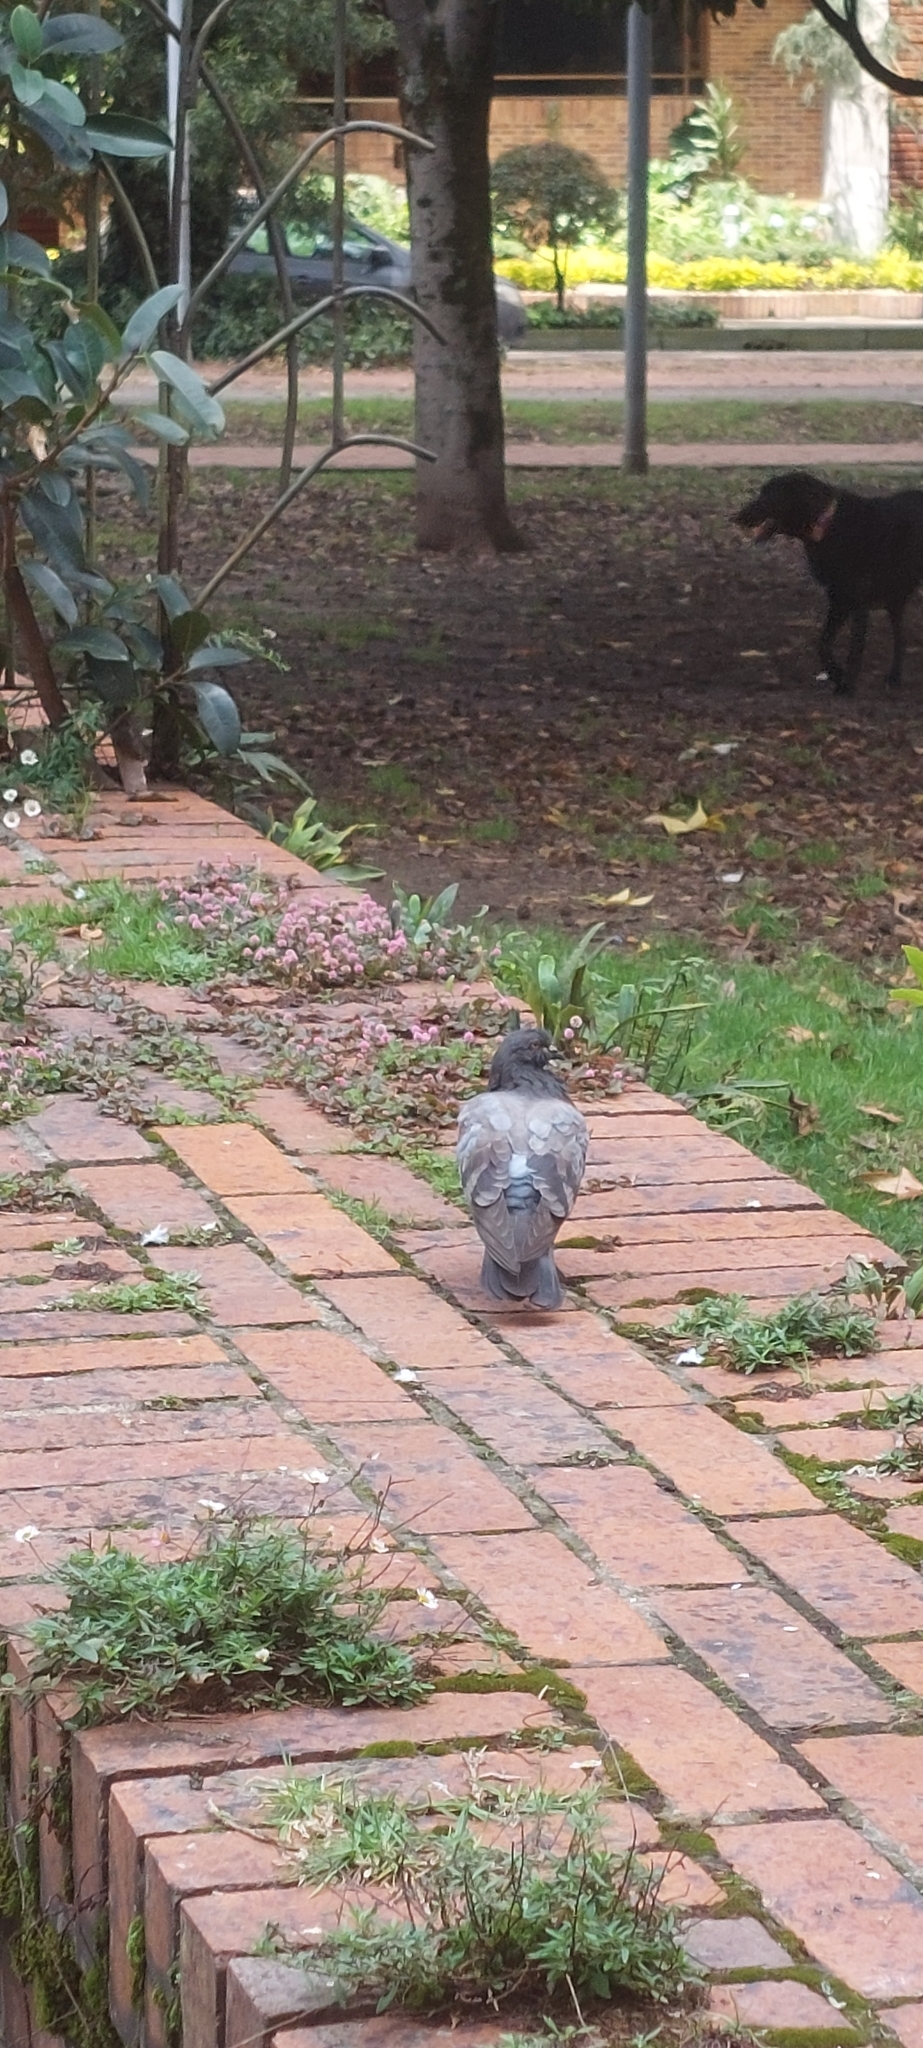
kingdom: Animalia
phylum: Chordata
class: Aves
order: Columbiformes
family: Columbidae
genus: Columba
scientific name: Columba livia
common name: Rock pigeon
